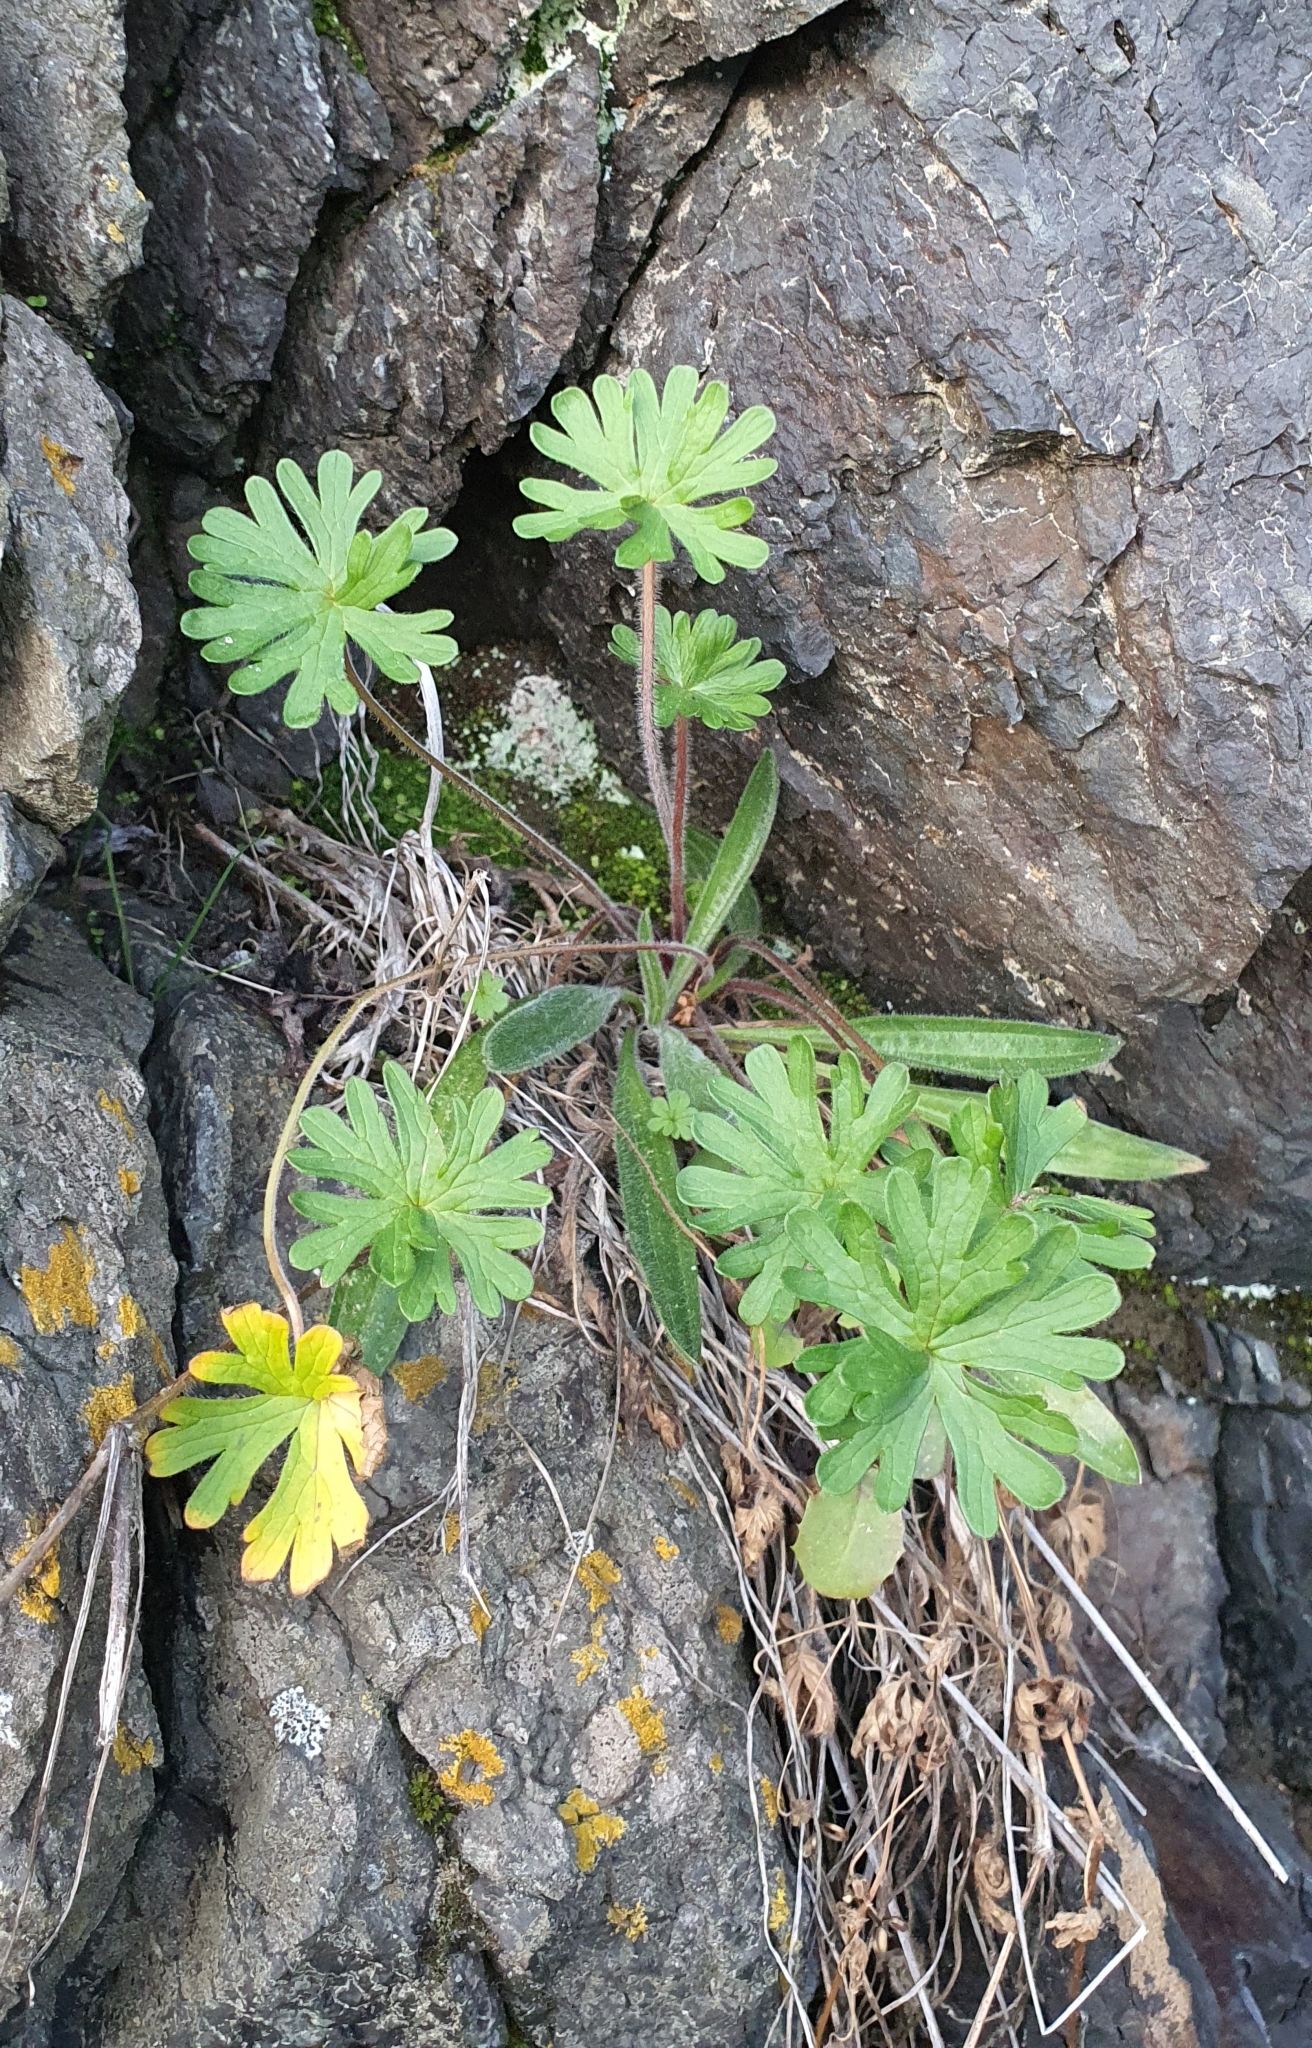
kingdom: Plantae
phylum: Tracheophyta
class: Magnoliopsida
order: Geraniales
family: Geraniaceae
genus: Geranium
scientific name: Geranium solanderi
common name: Solander's geranium
